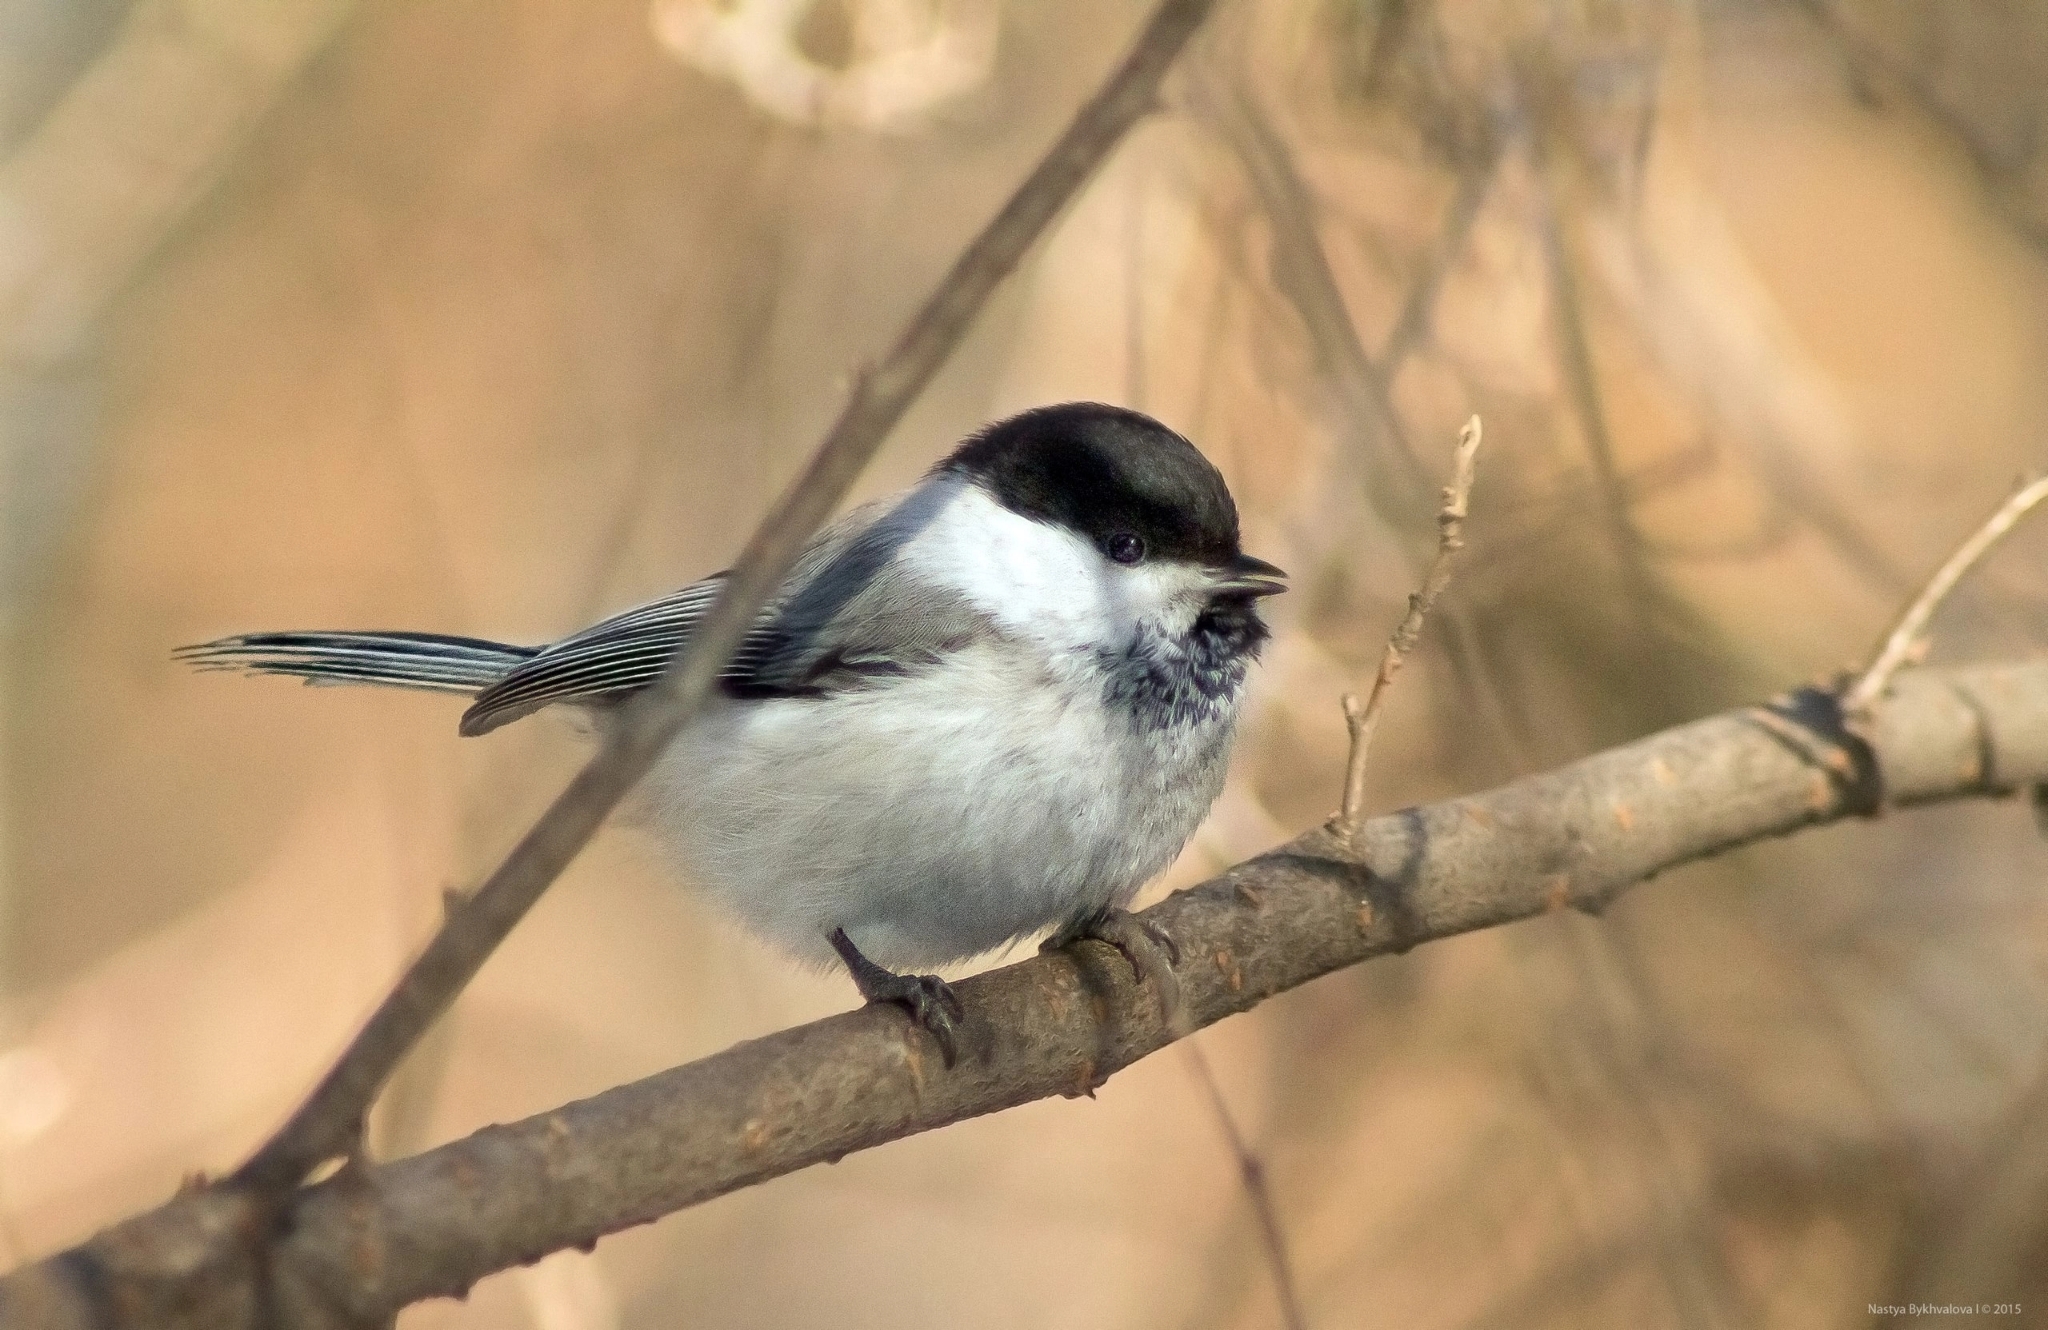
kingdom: Animalia
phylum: Chordata
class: Aves
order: Passeriformes
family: Paridae
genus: Poecile
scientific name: Poecile montanus
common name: Willow tit
